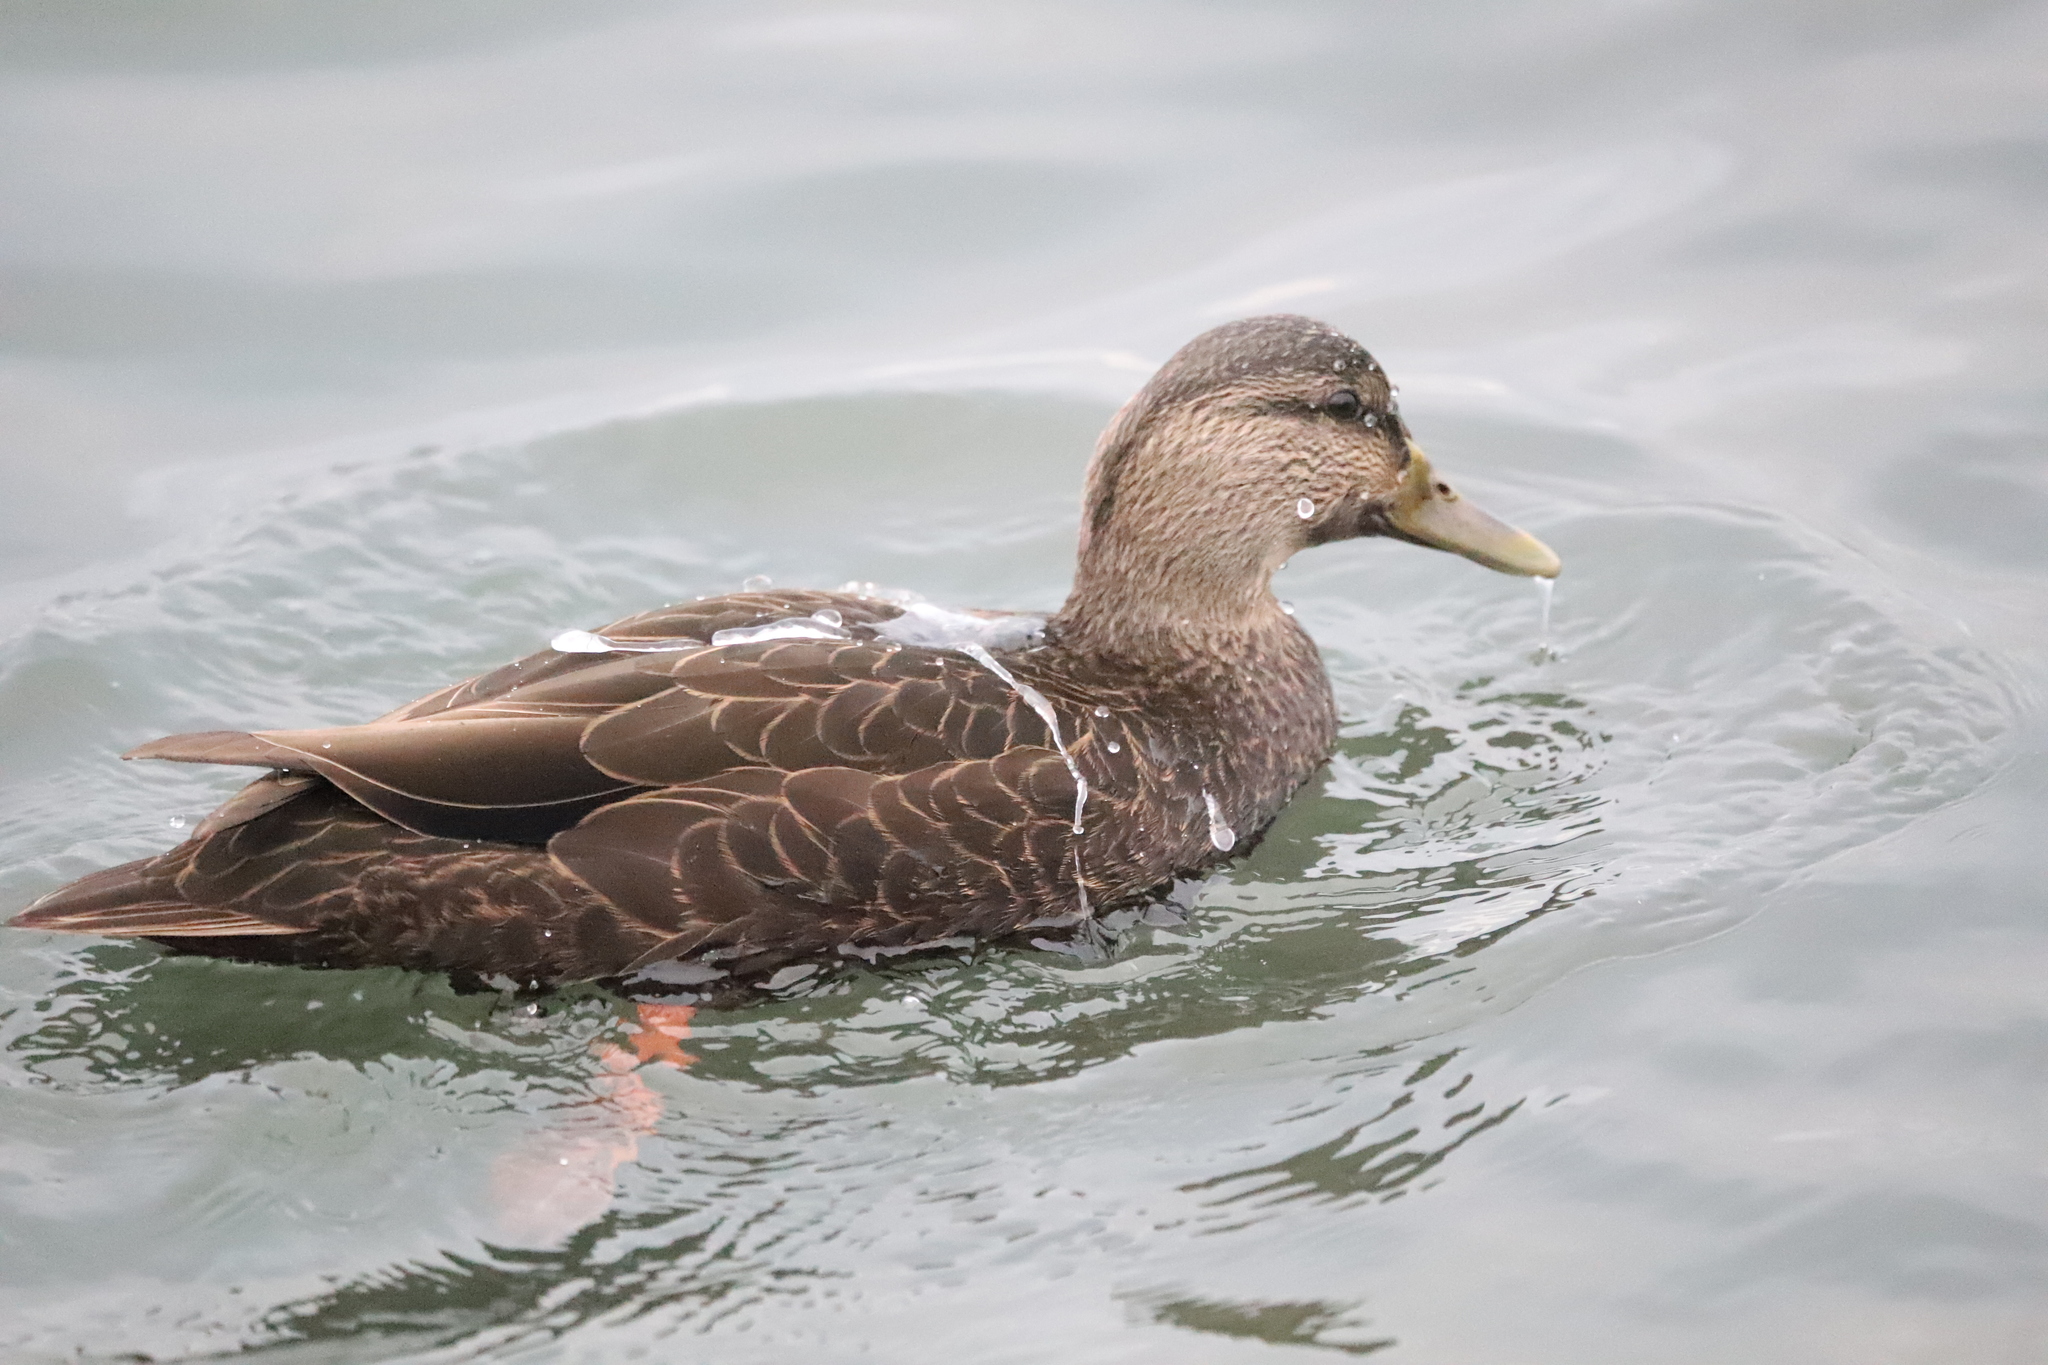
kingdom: Animalia
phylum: Chordata
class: Aves
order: Anseriformes
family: Anatidae
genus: Anas
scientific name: Anas rubripes
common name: American black duck
